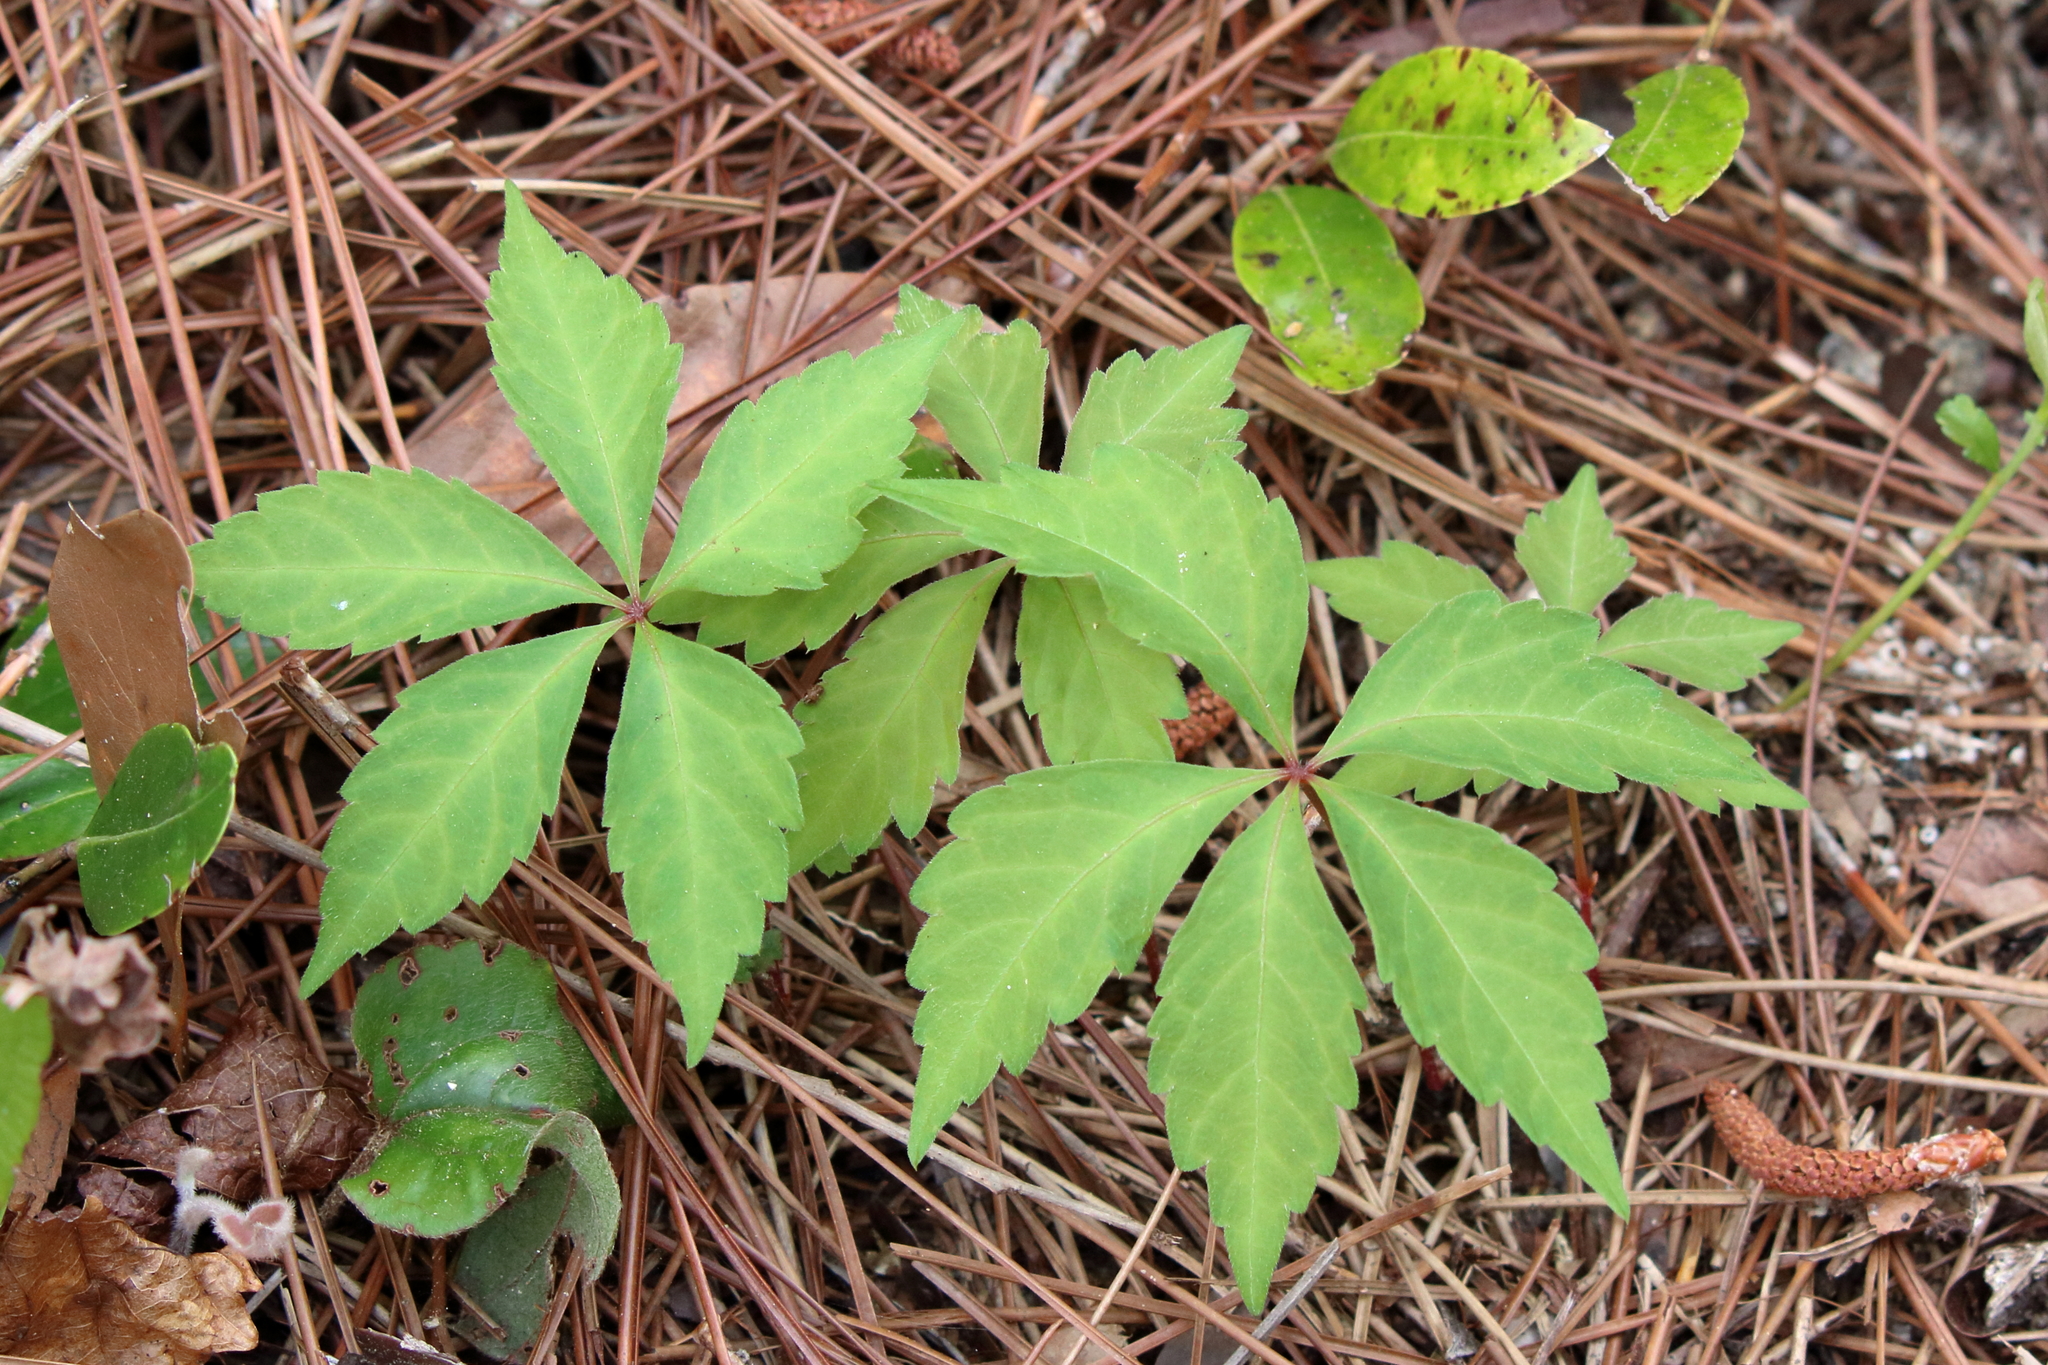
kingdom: Plantae
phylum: Tracheophyta
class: Magnoliopsida
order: Vitales
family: Vitaceae
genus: Parthenocissus
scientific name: Parthenocissus quinquefolia
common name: Virginia-creeper
